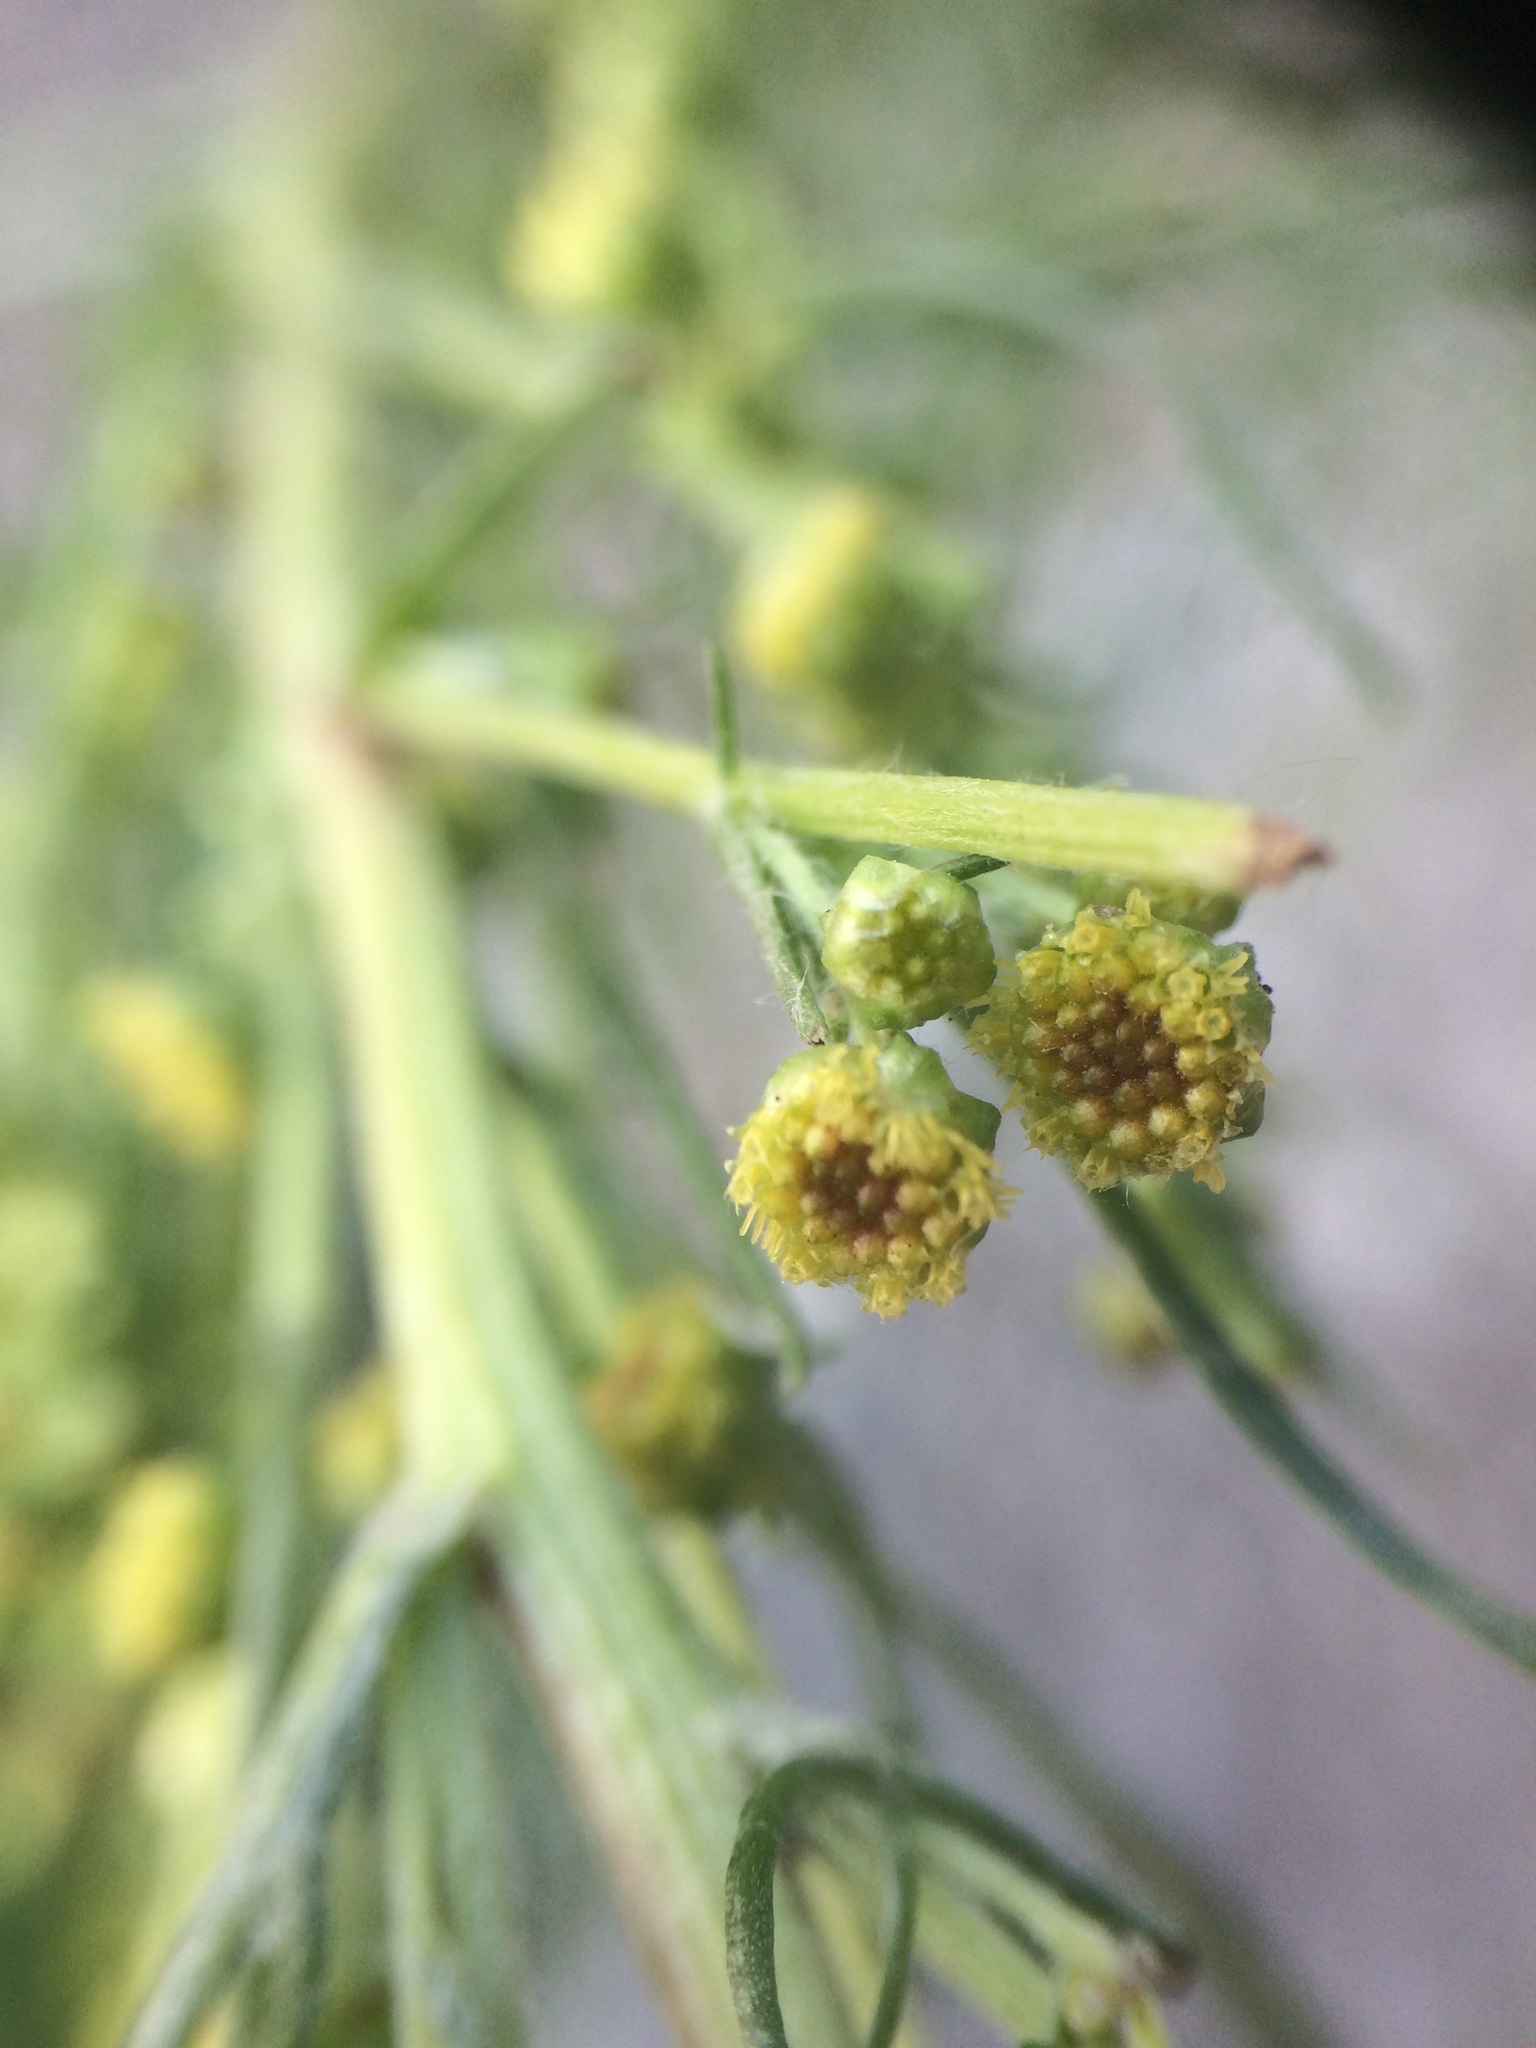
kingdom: Plantae
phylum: Tracheophyta
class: Magnoliopsida
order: Asterales
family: Asteraceae
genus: Artemisia
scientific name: Artemisia campestris
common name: Field wormwood
